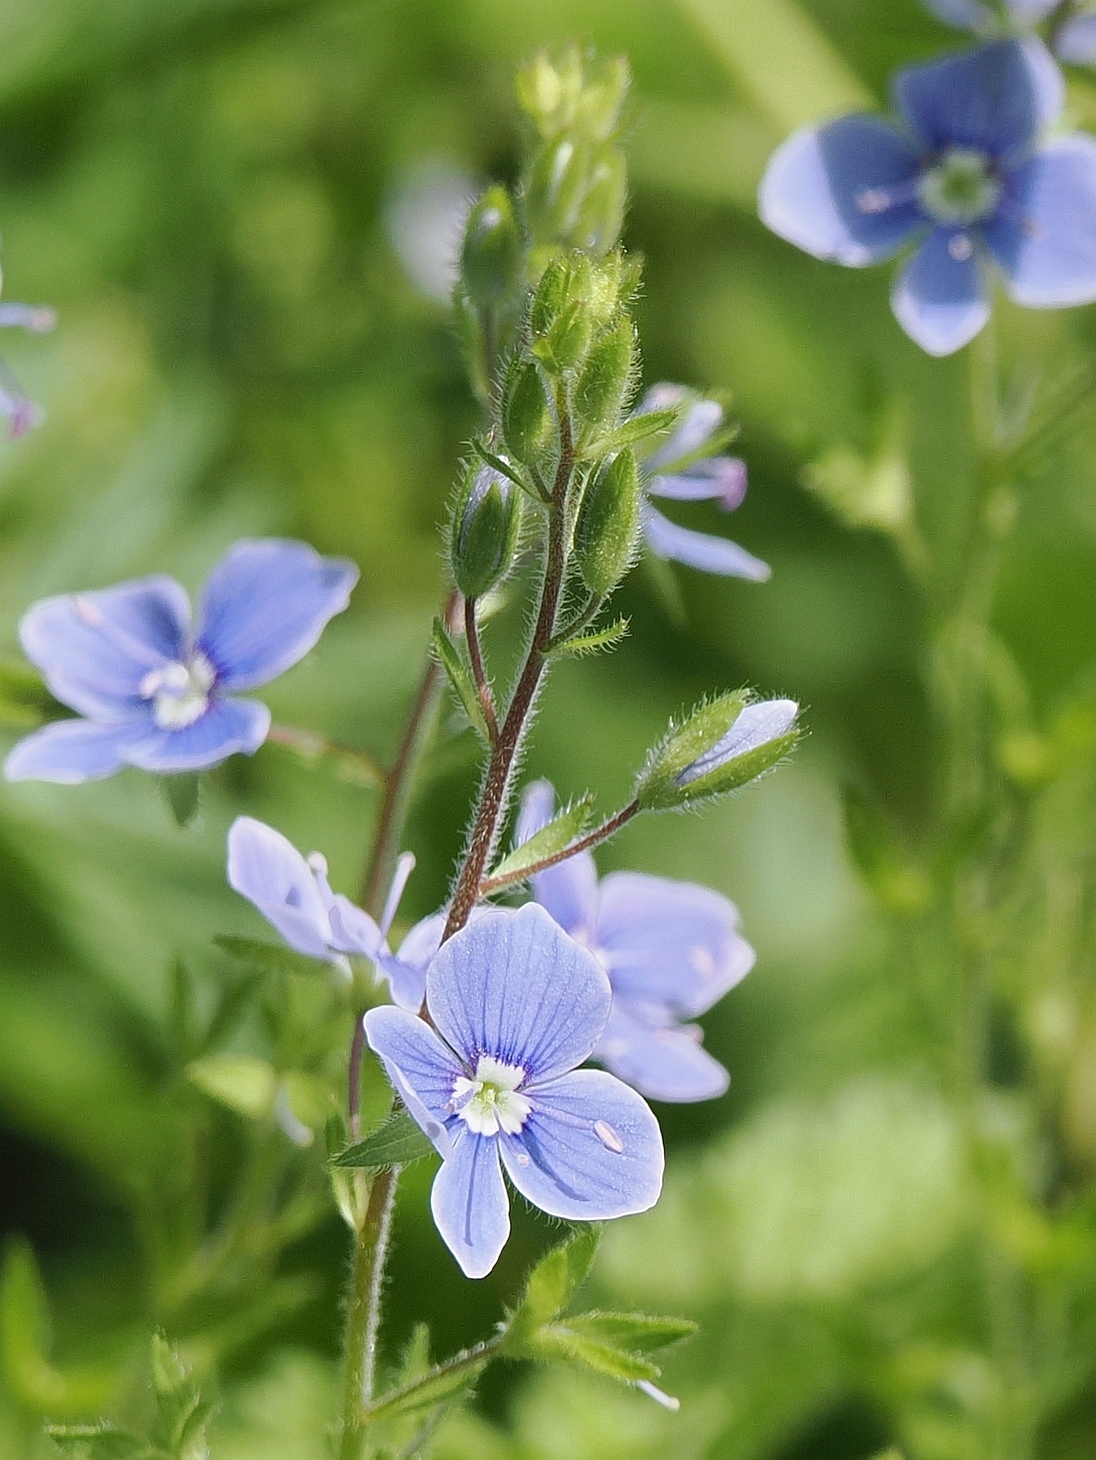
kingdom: Plantae
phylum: Tracheophyta
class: Magnoliopsida
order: Lamiales
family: Plantaginaceae
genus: Veronica
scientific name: Veronica chamaedrys
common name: Germander speedwell
